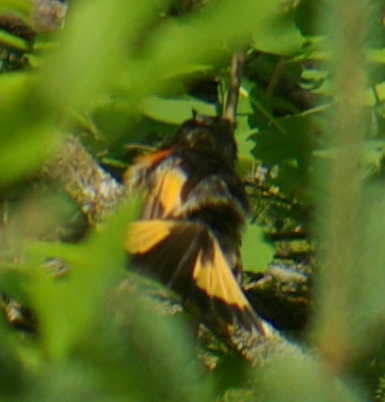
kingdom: Animalia
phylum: Chordata
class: Aves
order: Passeriformes
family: Parulidae
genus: Setophaga
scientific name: Setophaga ruticilla
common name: American redstart
